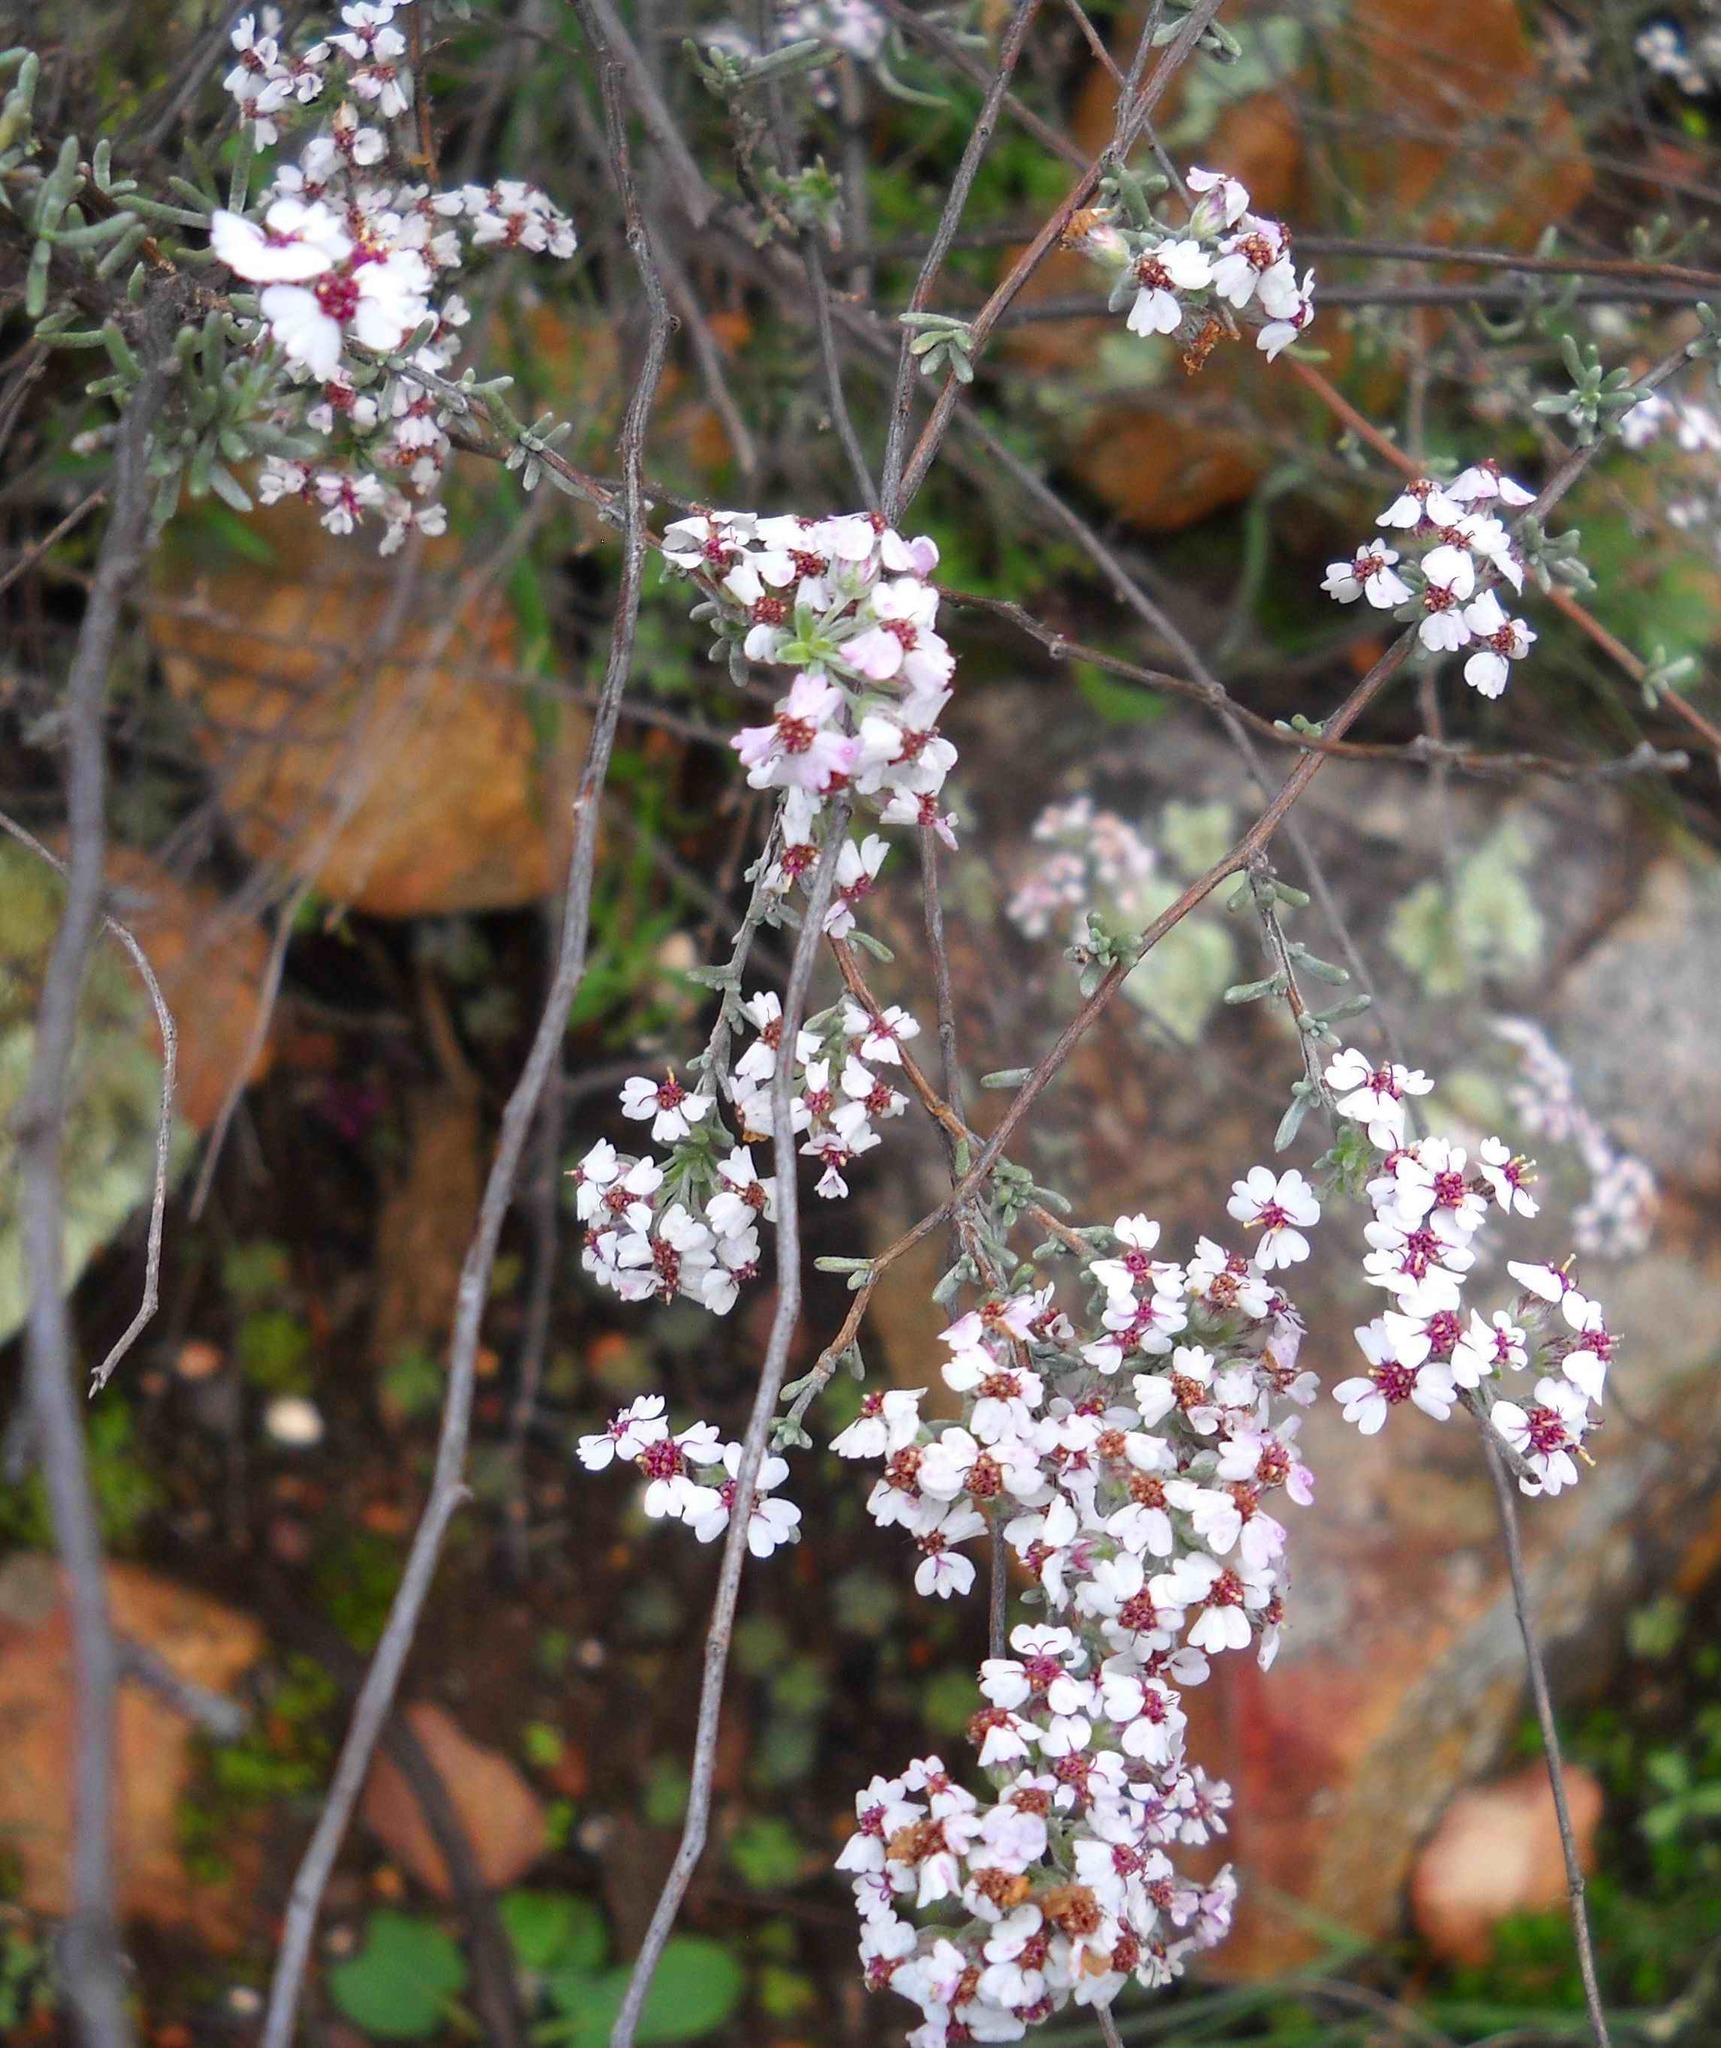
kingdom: Plantae
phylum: Tracheophyta
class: Magnoliopsida
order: Asterales
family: Asteraceae
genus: Eriocephalus
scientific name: Eriocephalus africanus
